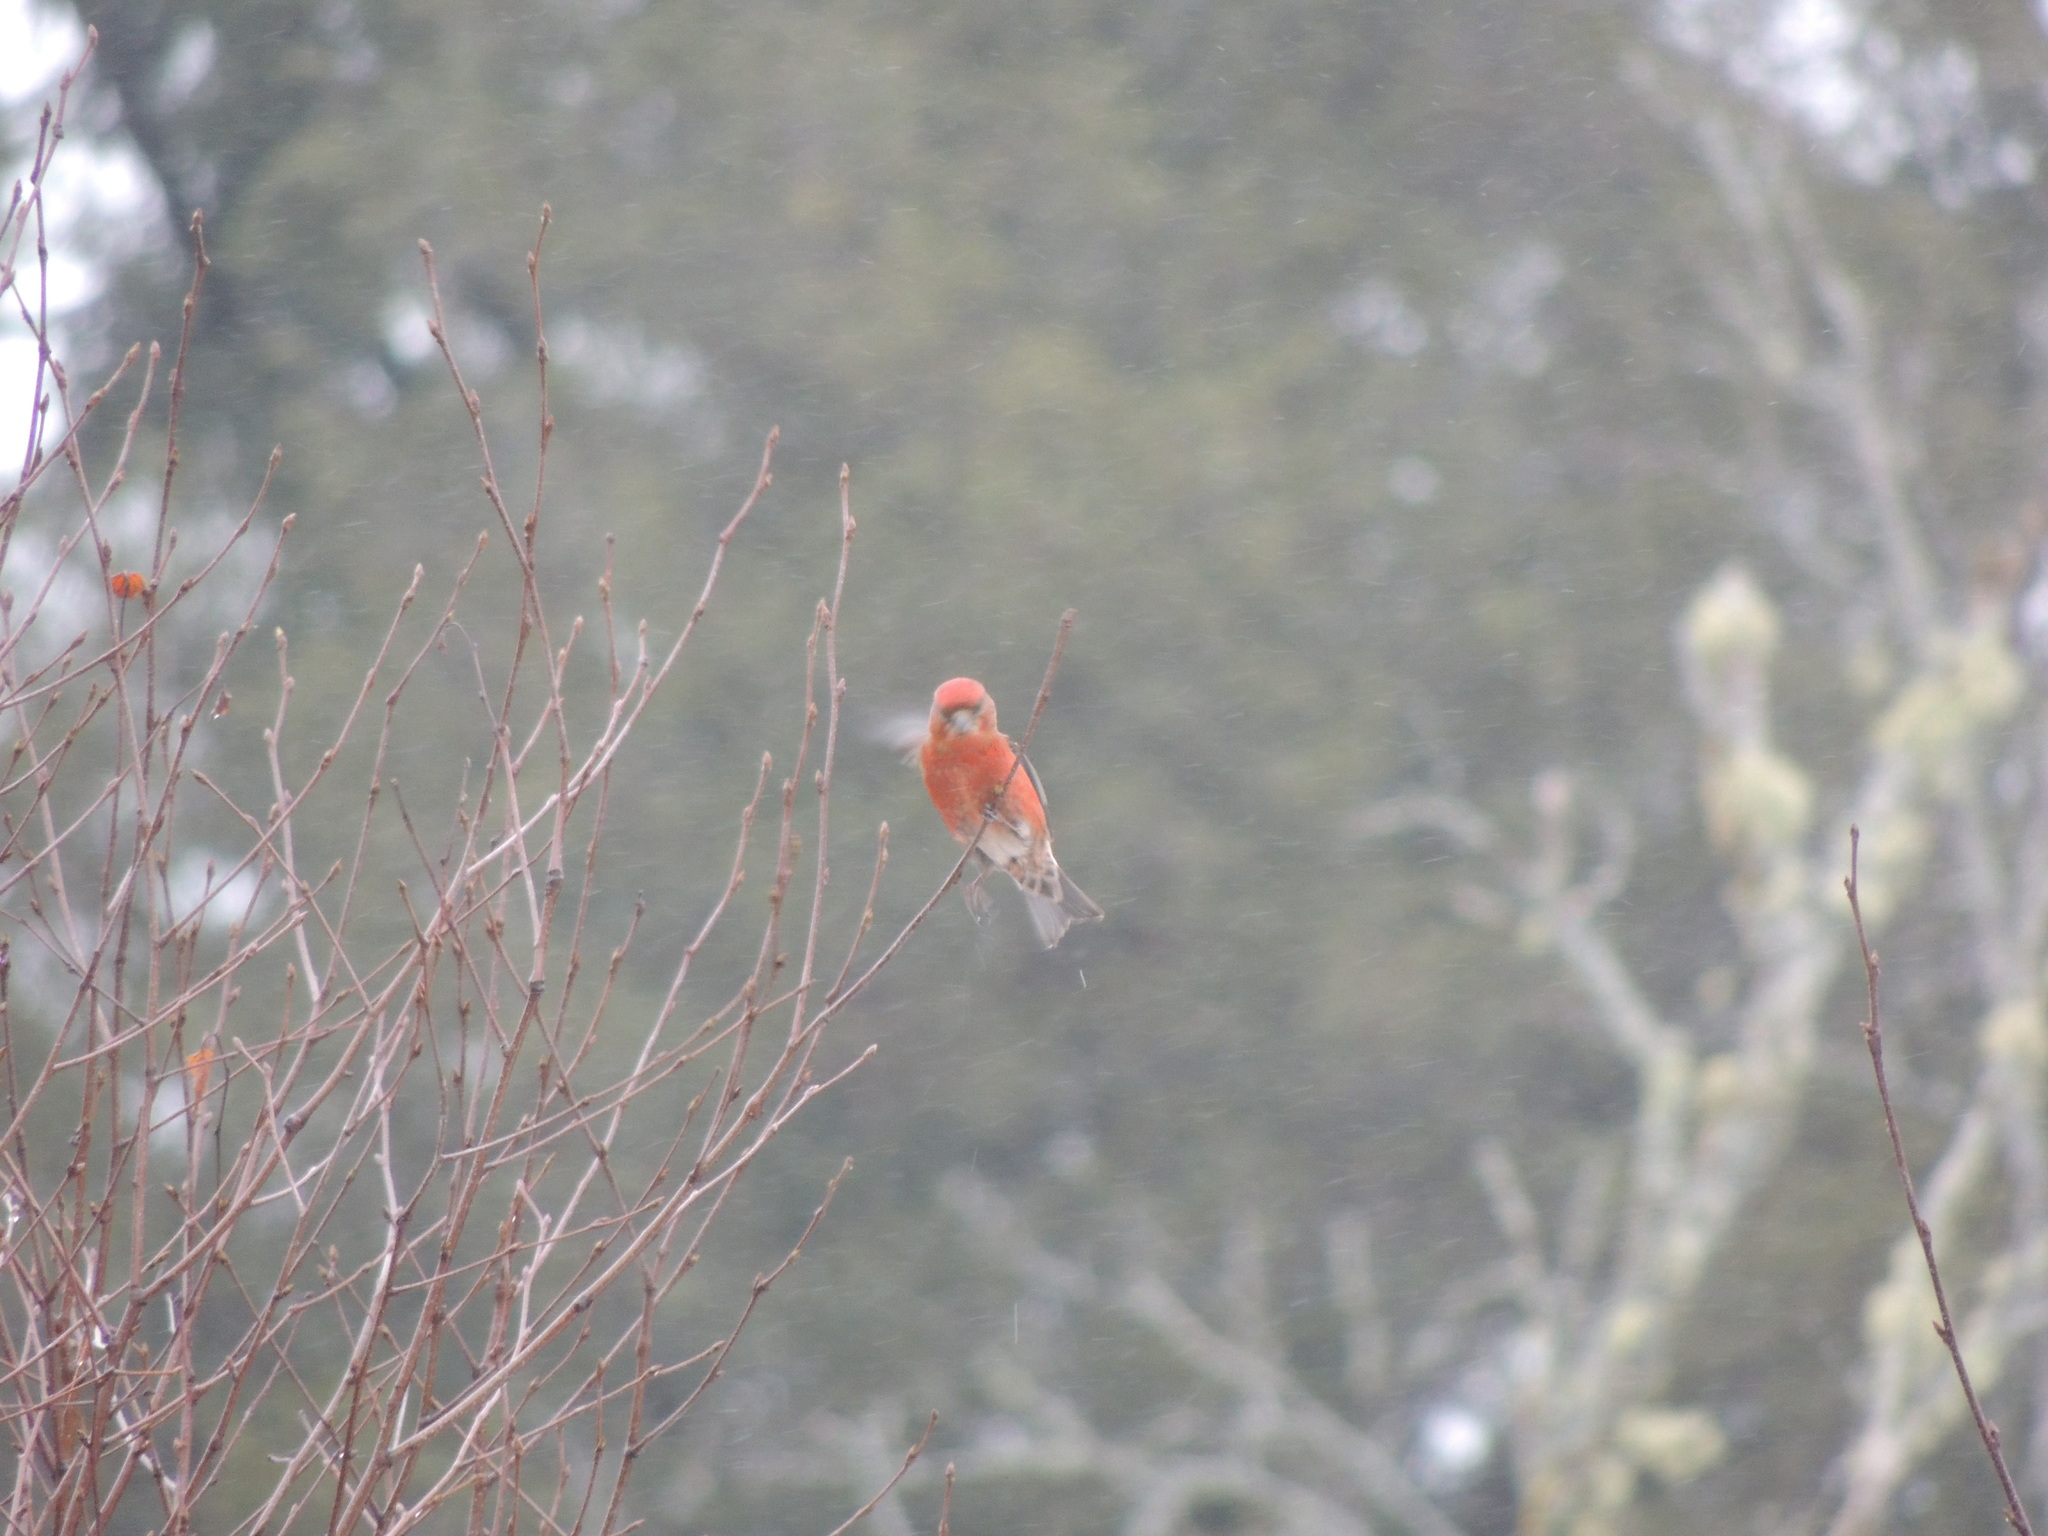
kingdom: Animalia
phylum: Chordata
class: Aves
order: Passeriformes
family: Fringillidae
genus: Loxia
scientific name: Loxia curvirostra
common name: Red crossbill
